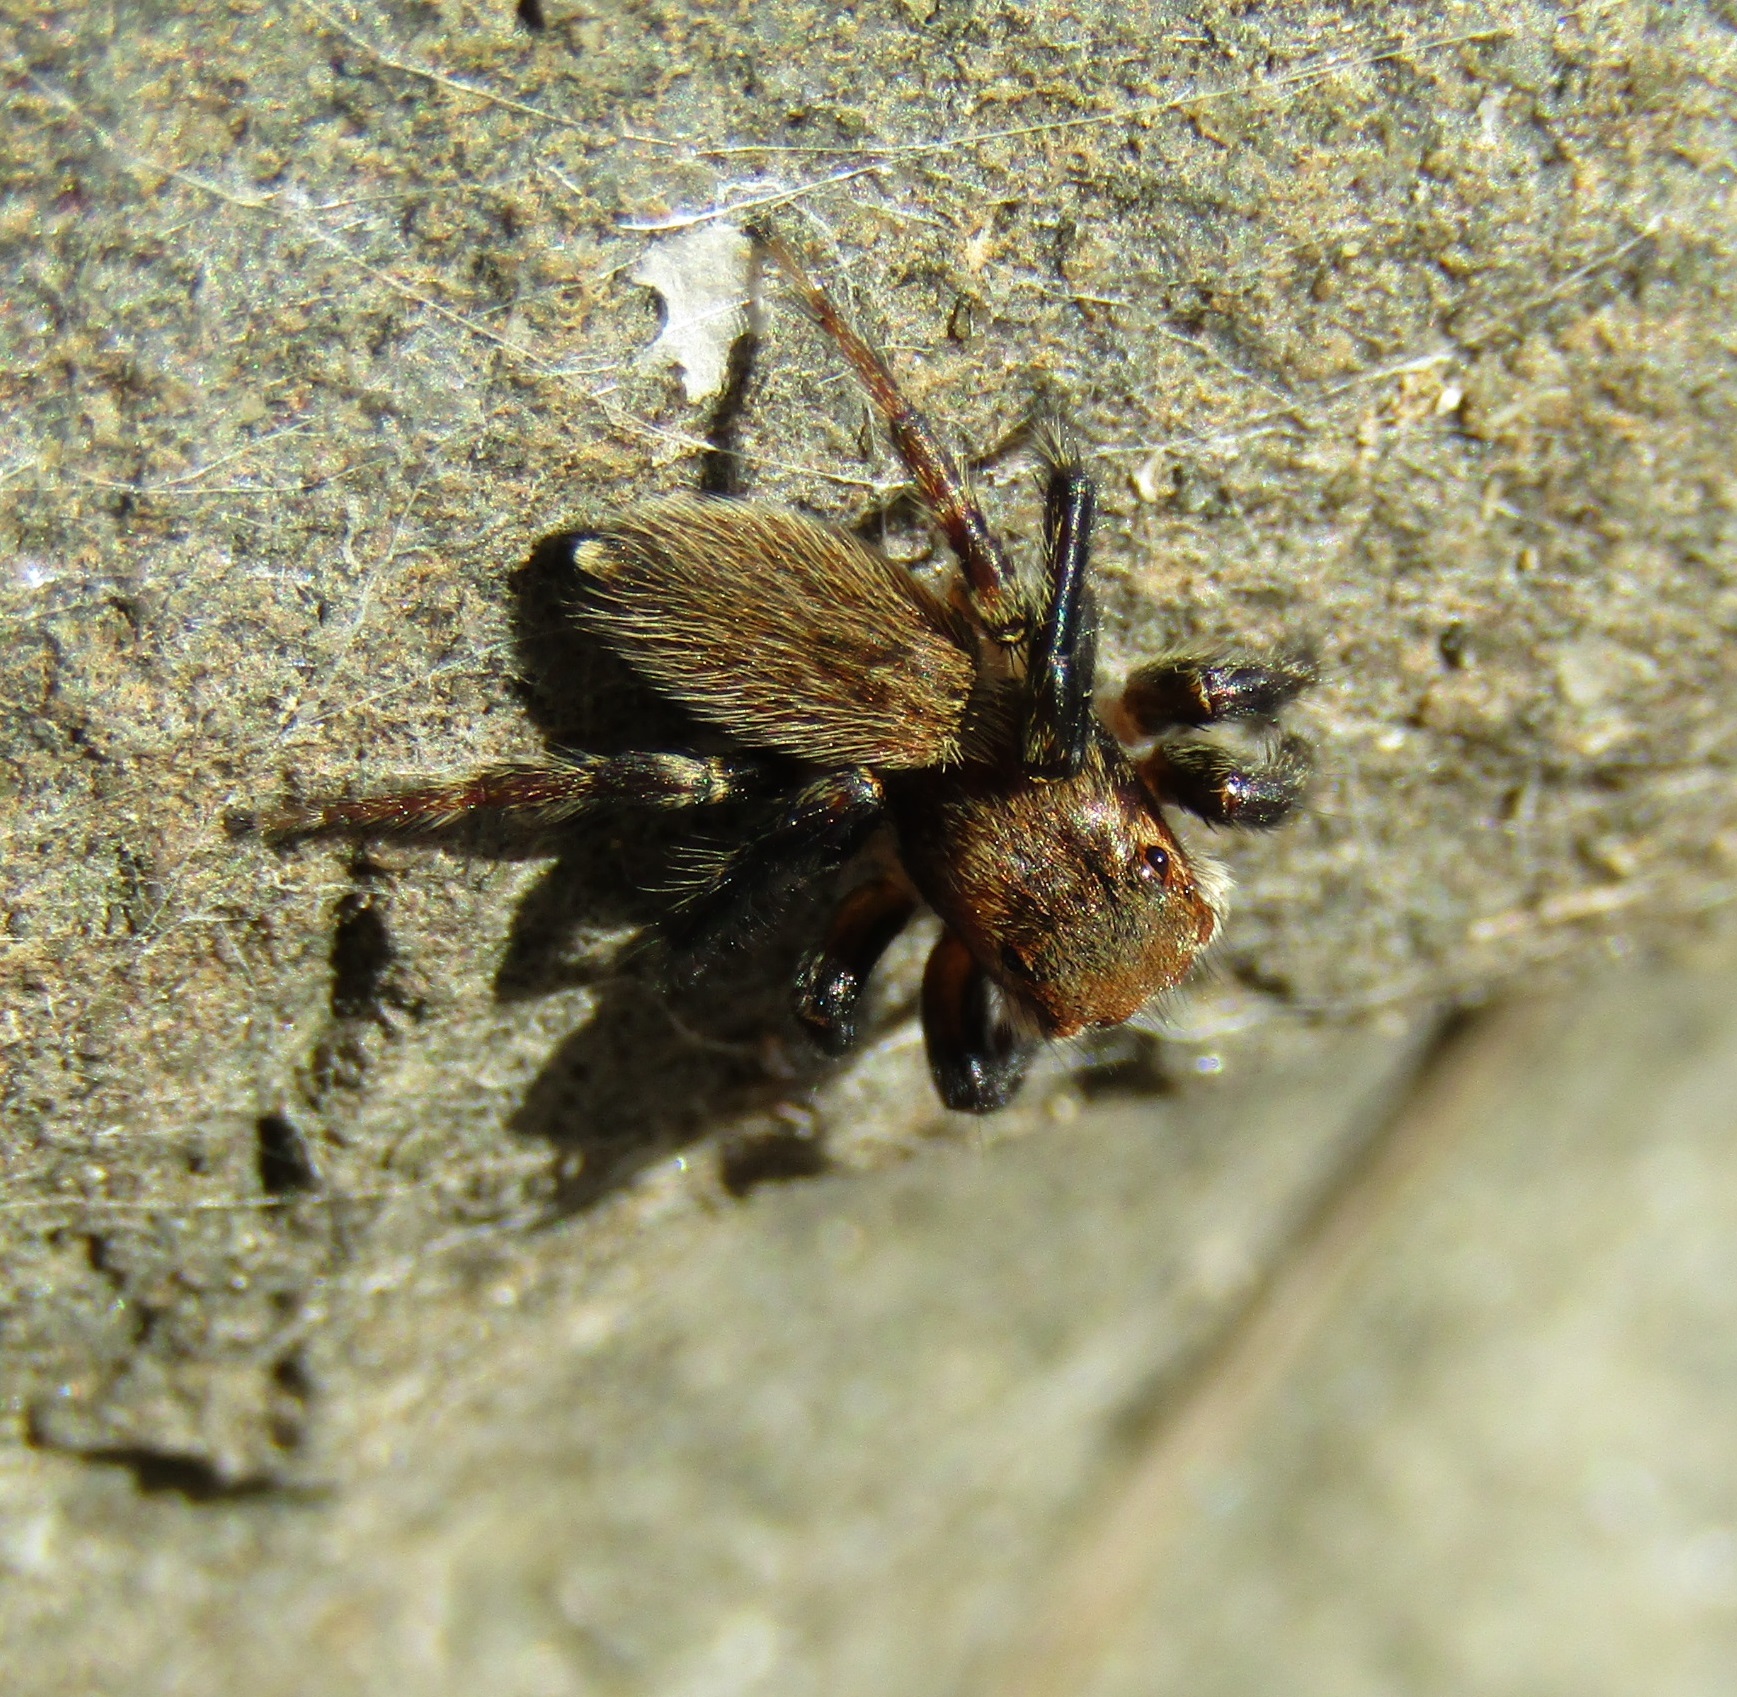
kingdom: Animalia
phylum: Arthropoda
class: Arachnida
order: Araneae
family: Salticidae
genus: Maratus
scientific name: Maratus griseus
